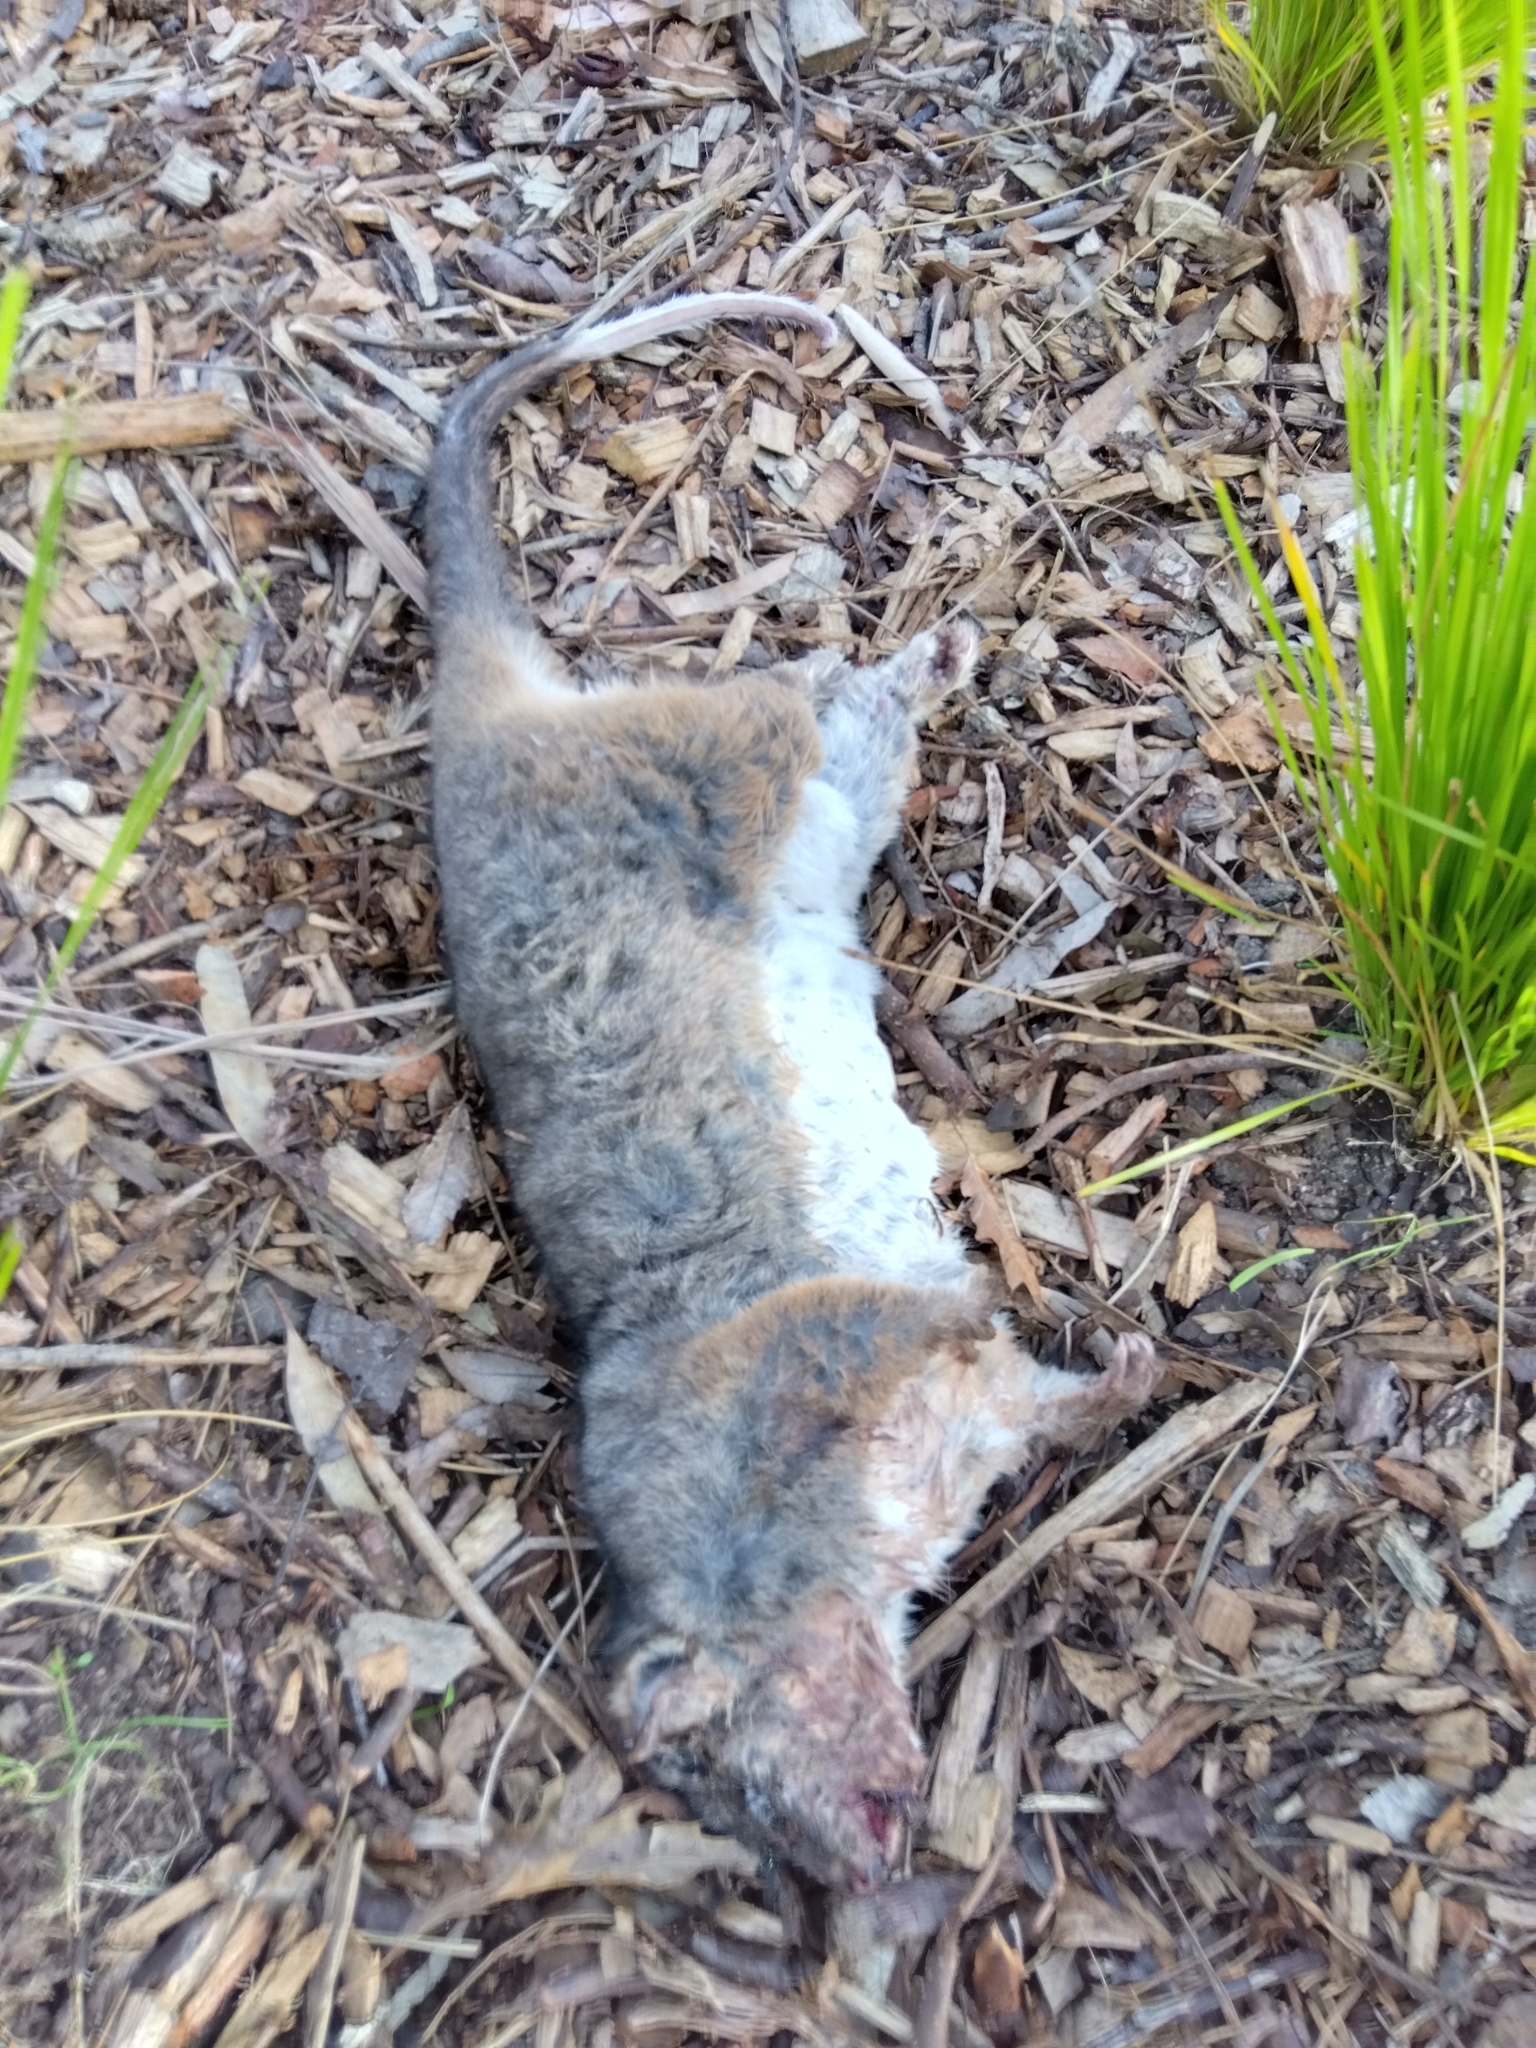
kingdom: Animalia
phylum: Chordata
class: Mammalia
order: Diprotodontia
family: Pseudocheiridae
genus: Pseudocheirus
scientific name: Pseudocheirus peregrinus
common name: Common ringtail possum
